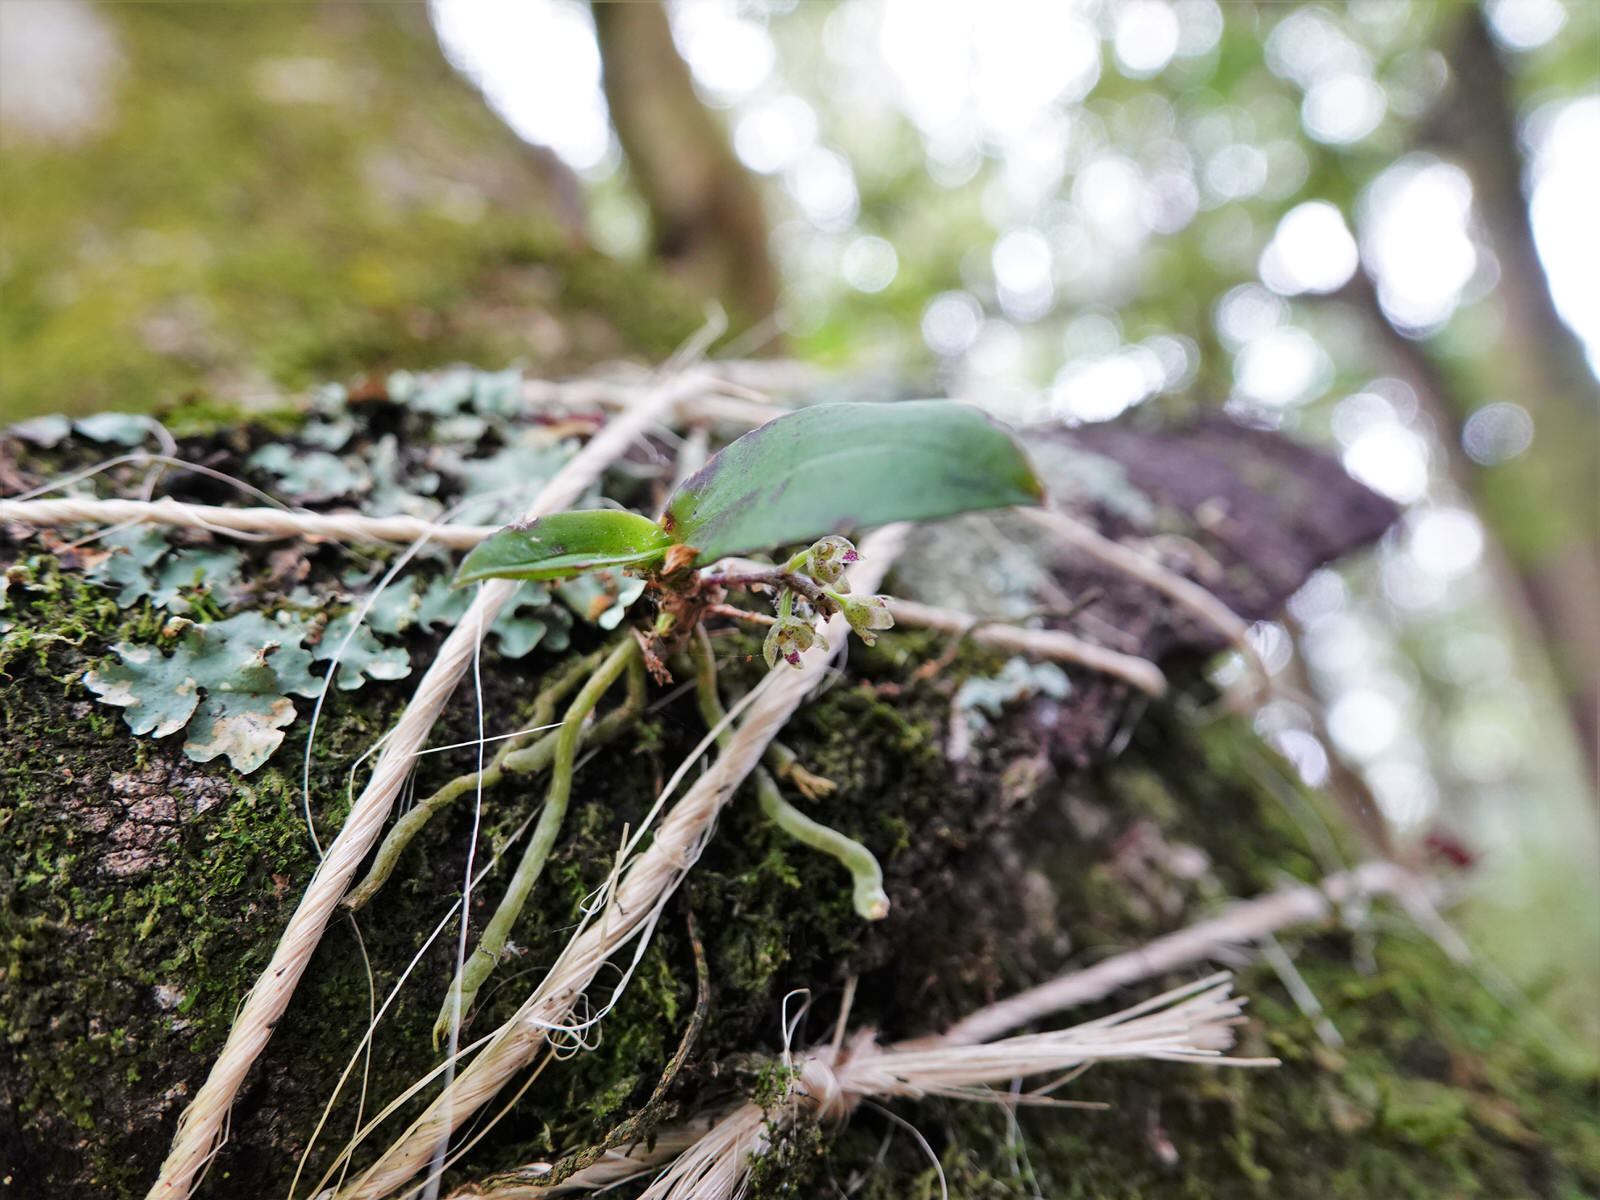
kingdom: Plantae
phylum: Tracheophyta
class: Liliopsida
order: Asparagales
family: Orchidaceae
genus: Drymoanthus
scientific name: Drymoanthus adversus
